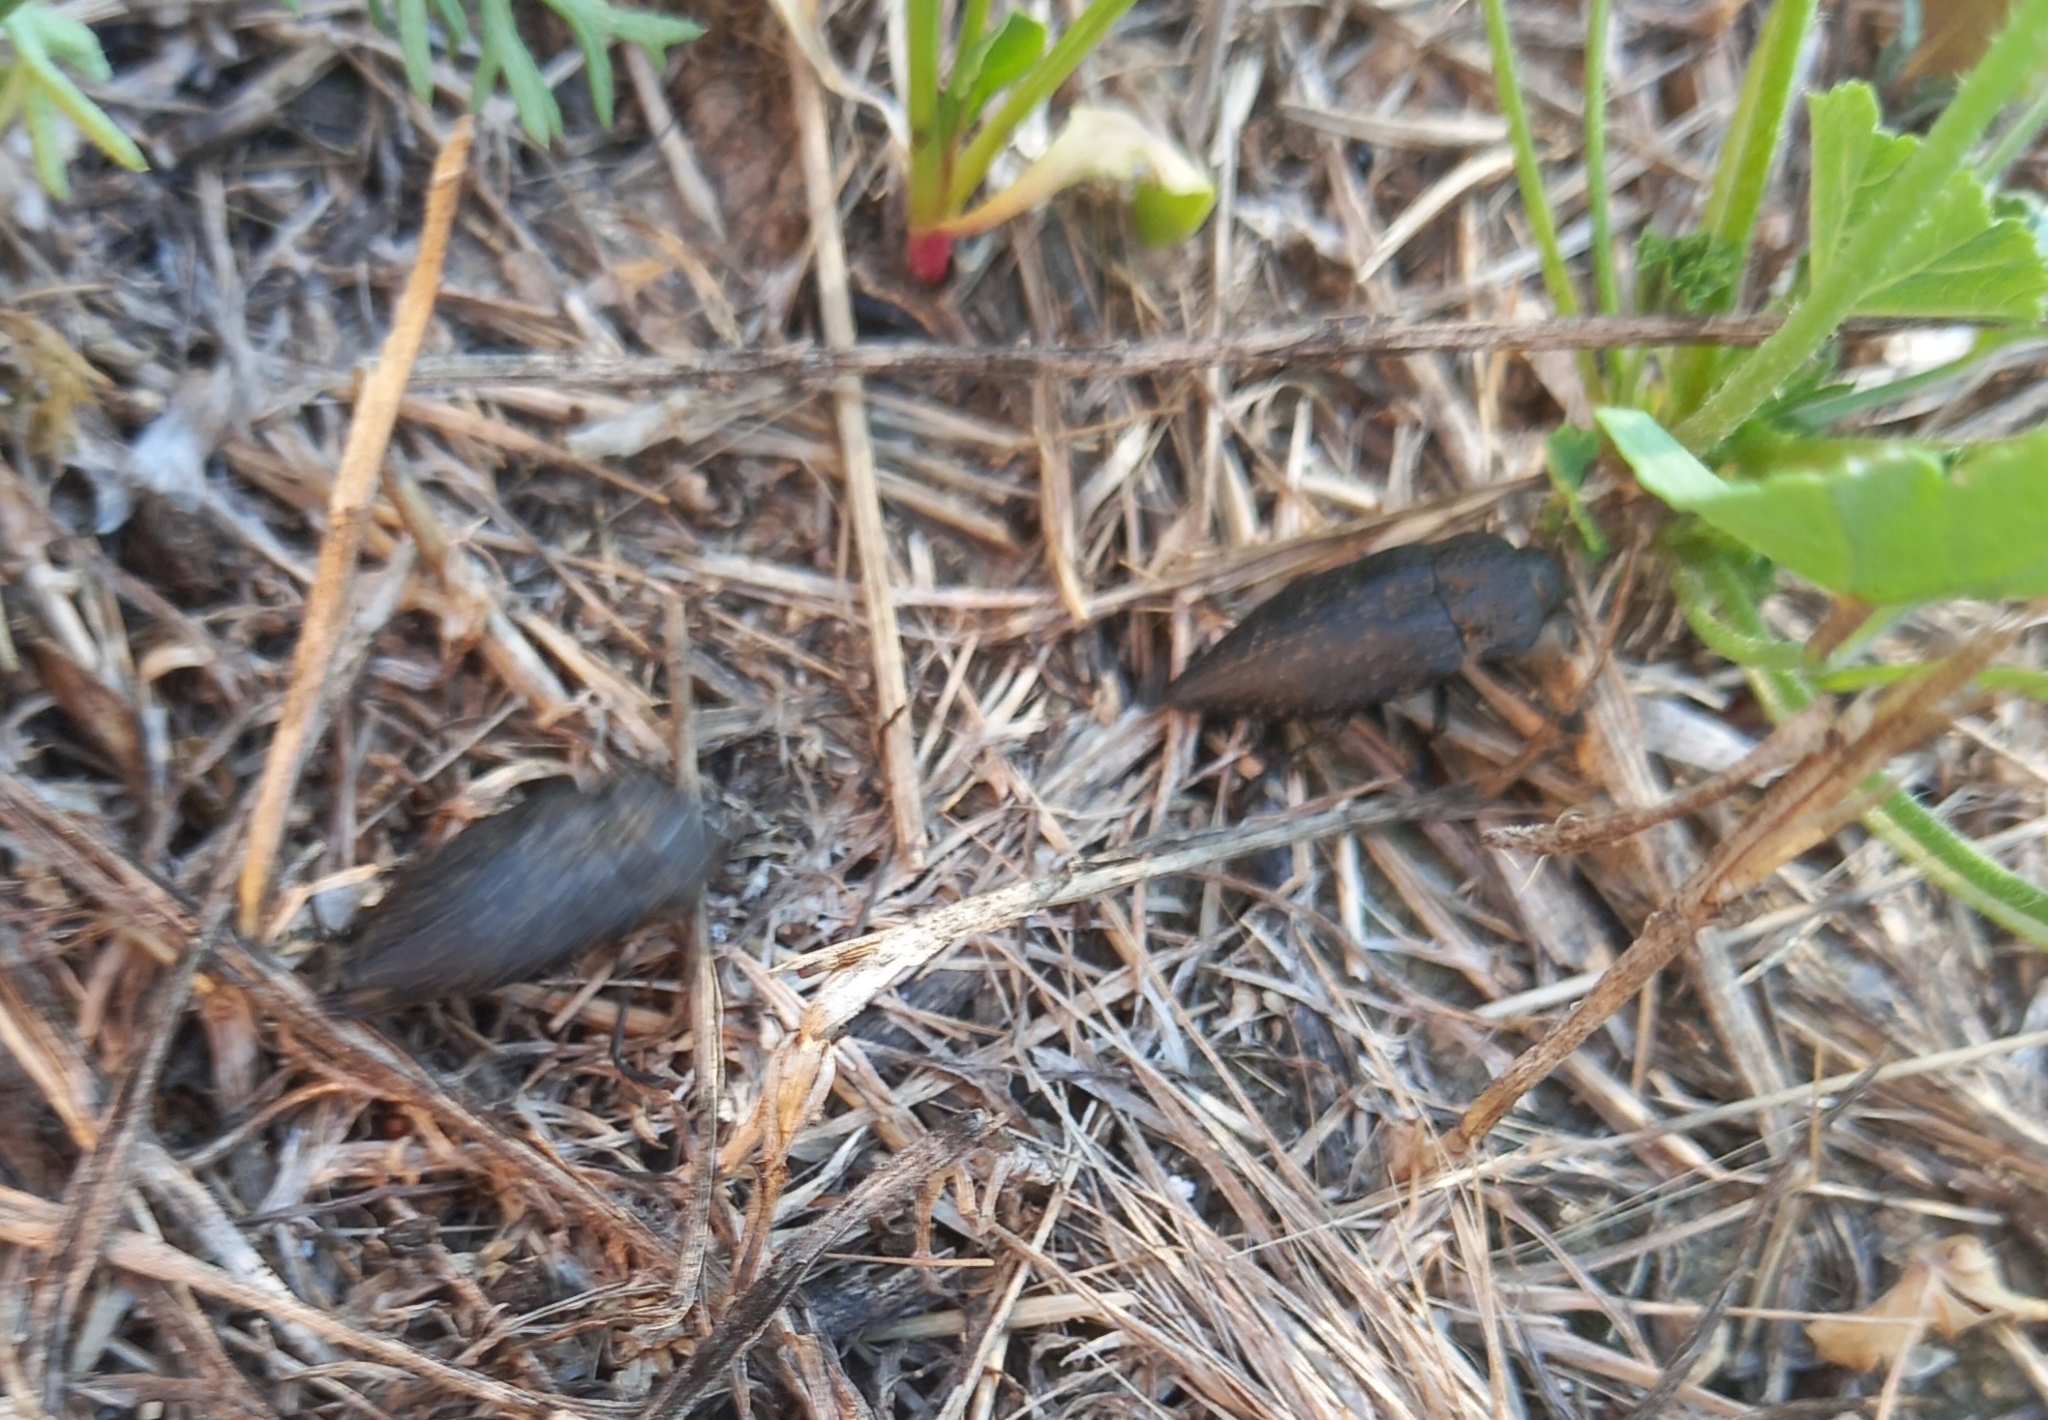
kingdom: Animalia
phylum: Arthropoda
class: Insecta
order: Coleoptera
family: Buprestidae
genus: Capnodis
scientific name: Capnodis tenebricosa
